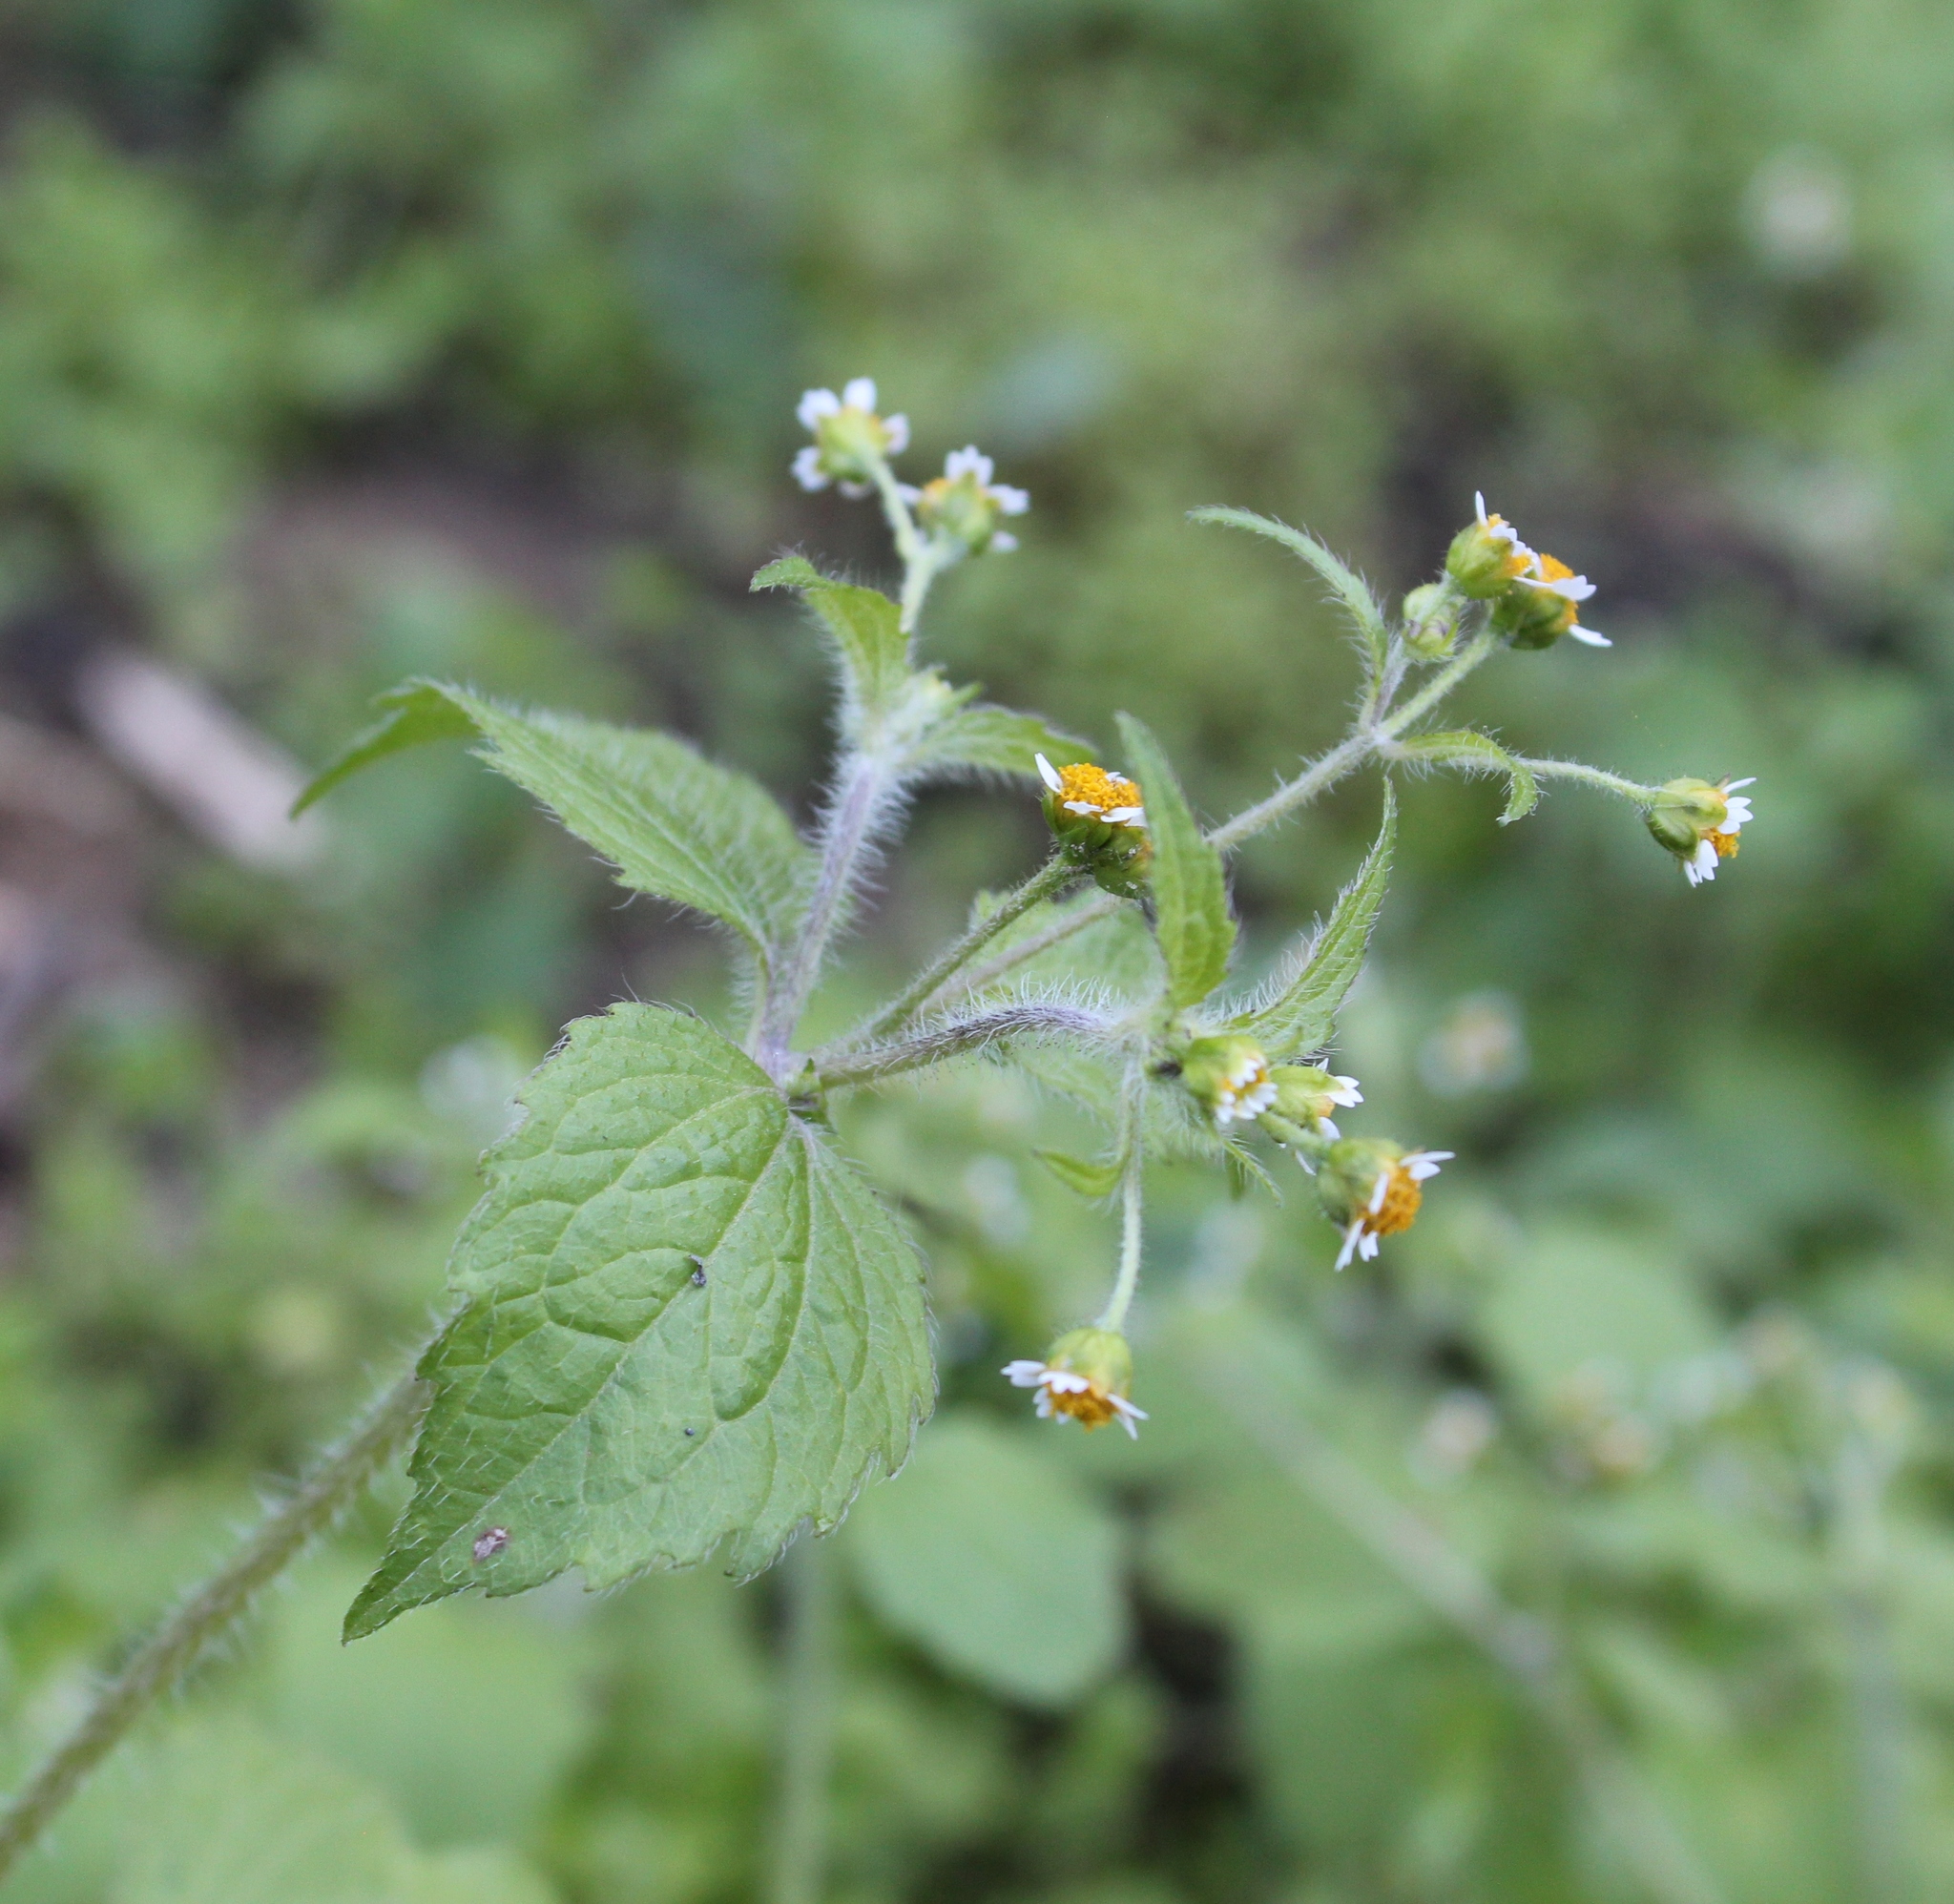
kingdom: Plantae
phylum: Tracheophyta
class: Magnoliopsida
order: Asterales
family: Asteraceae
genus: Galinsoga
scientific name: Galinsoga quadriradiata
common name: Shaggy soldier
